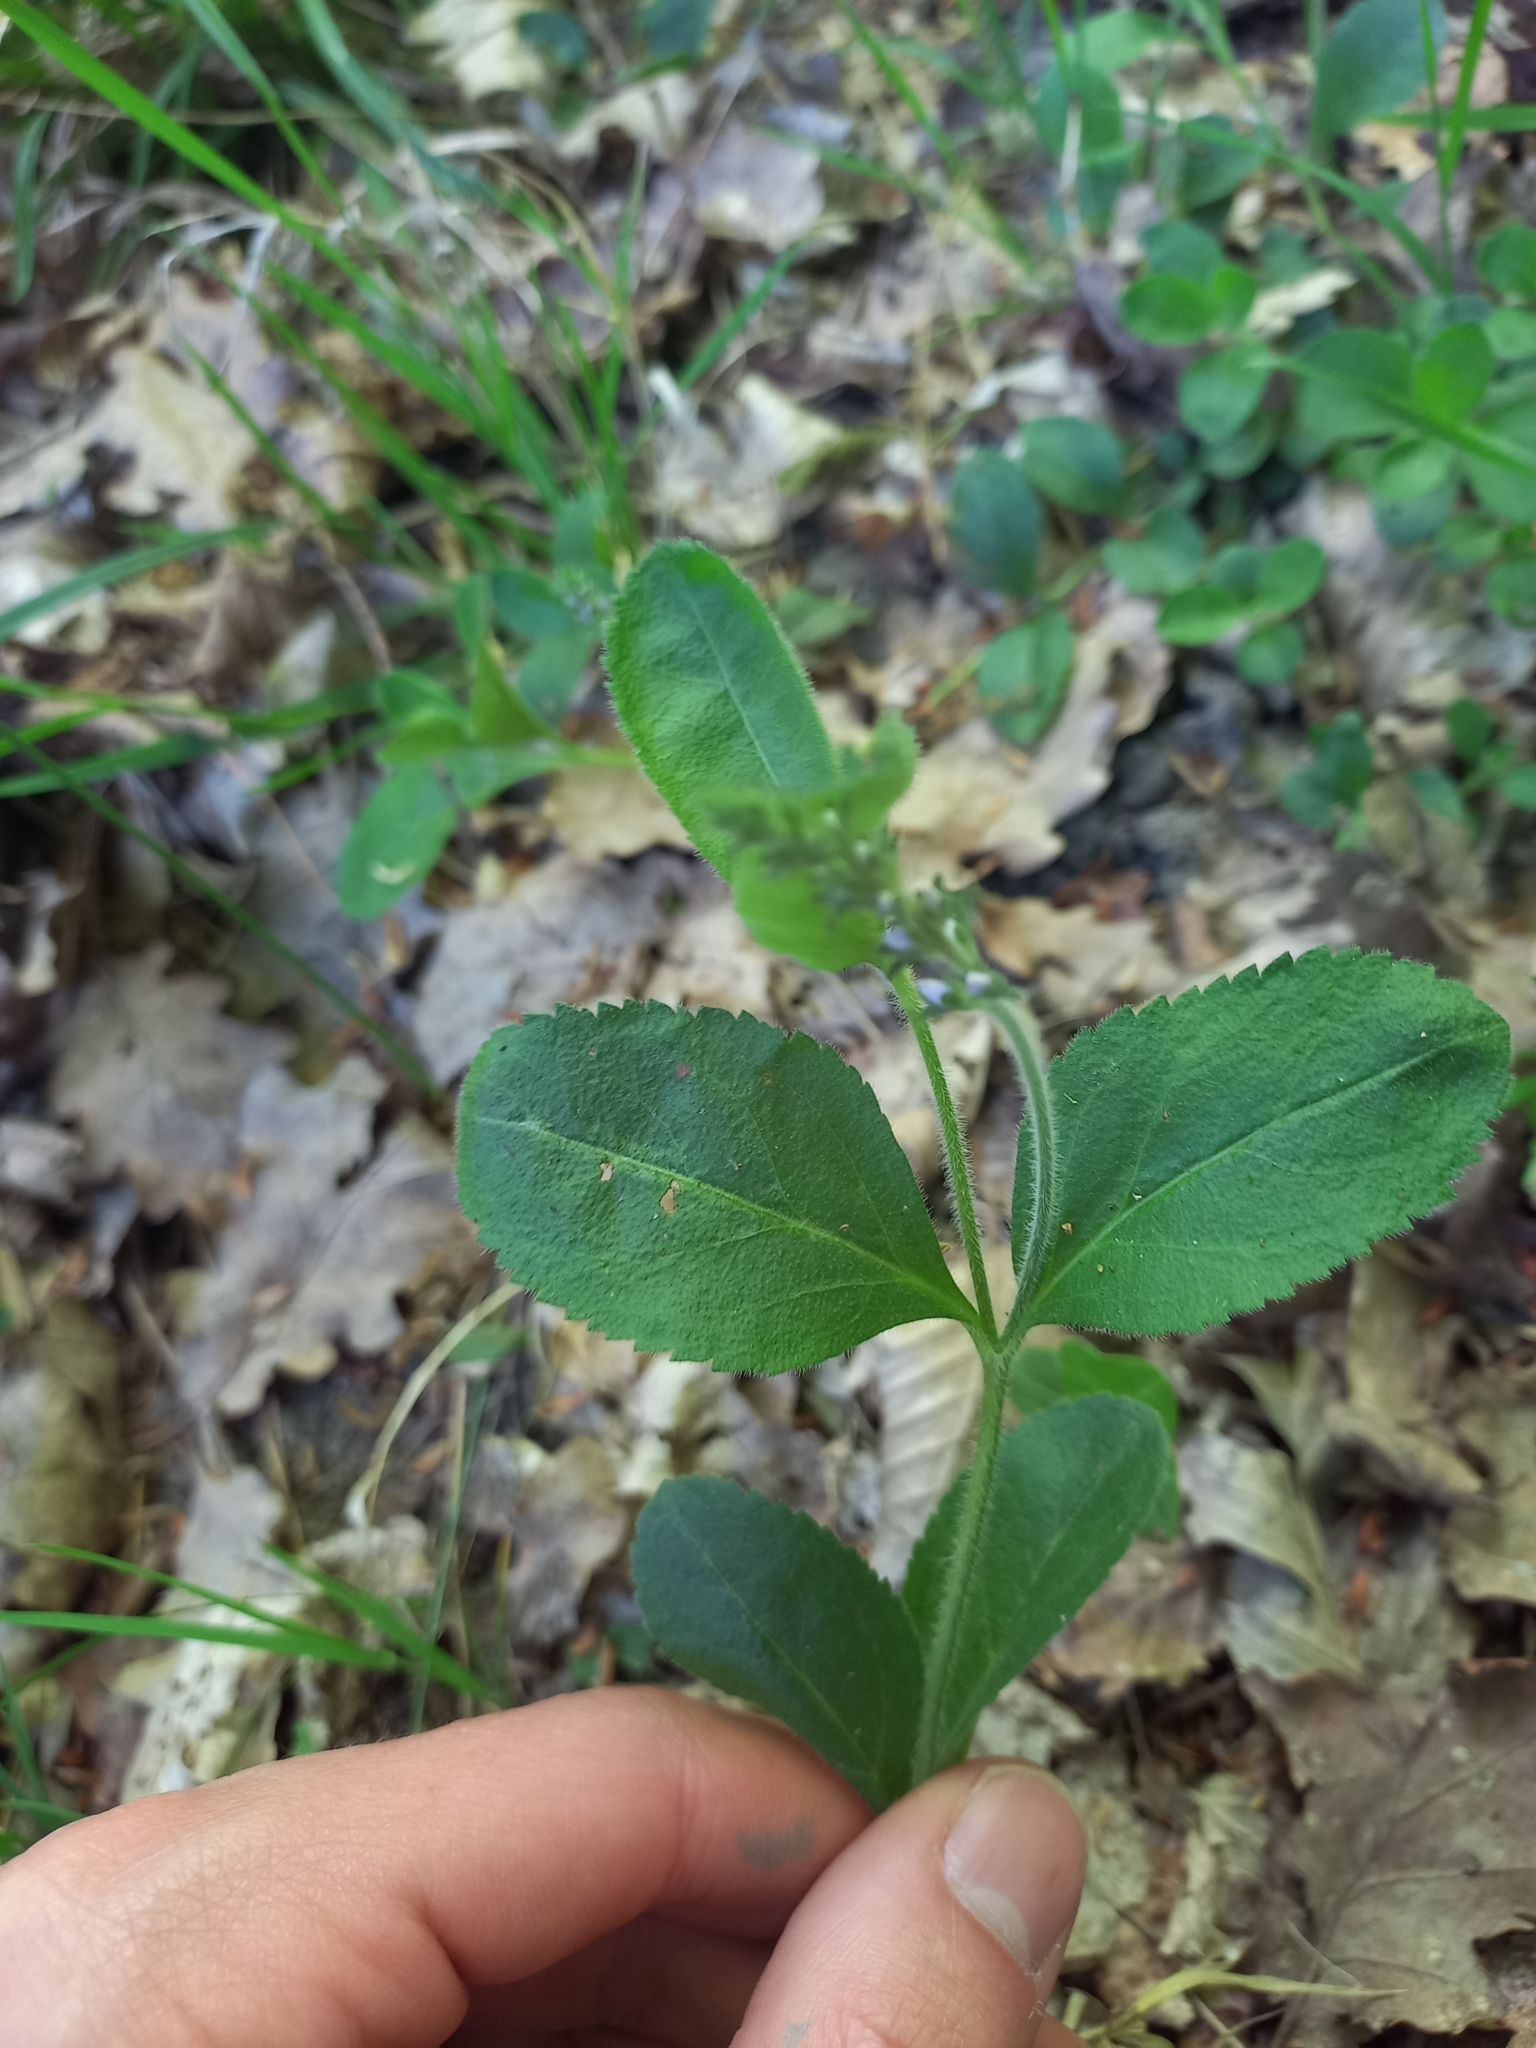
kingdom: Plantae
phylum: Tracheophyta
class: Magnoliopsida
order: Lamiales
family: Plantaginaceae
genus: Veronica
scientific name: Veronica officinalis
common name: Common speedwell
